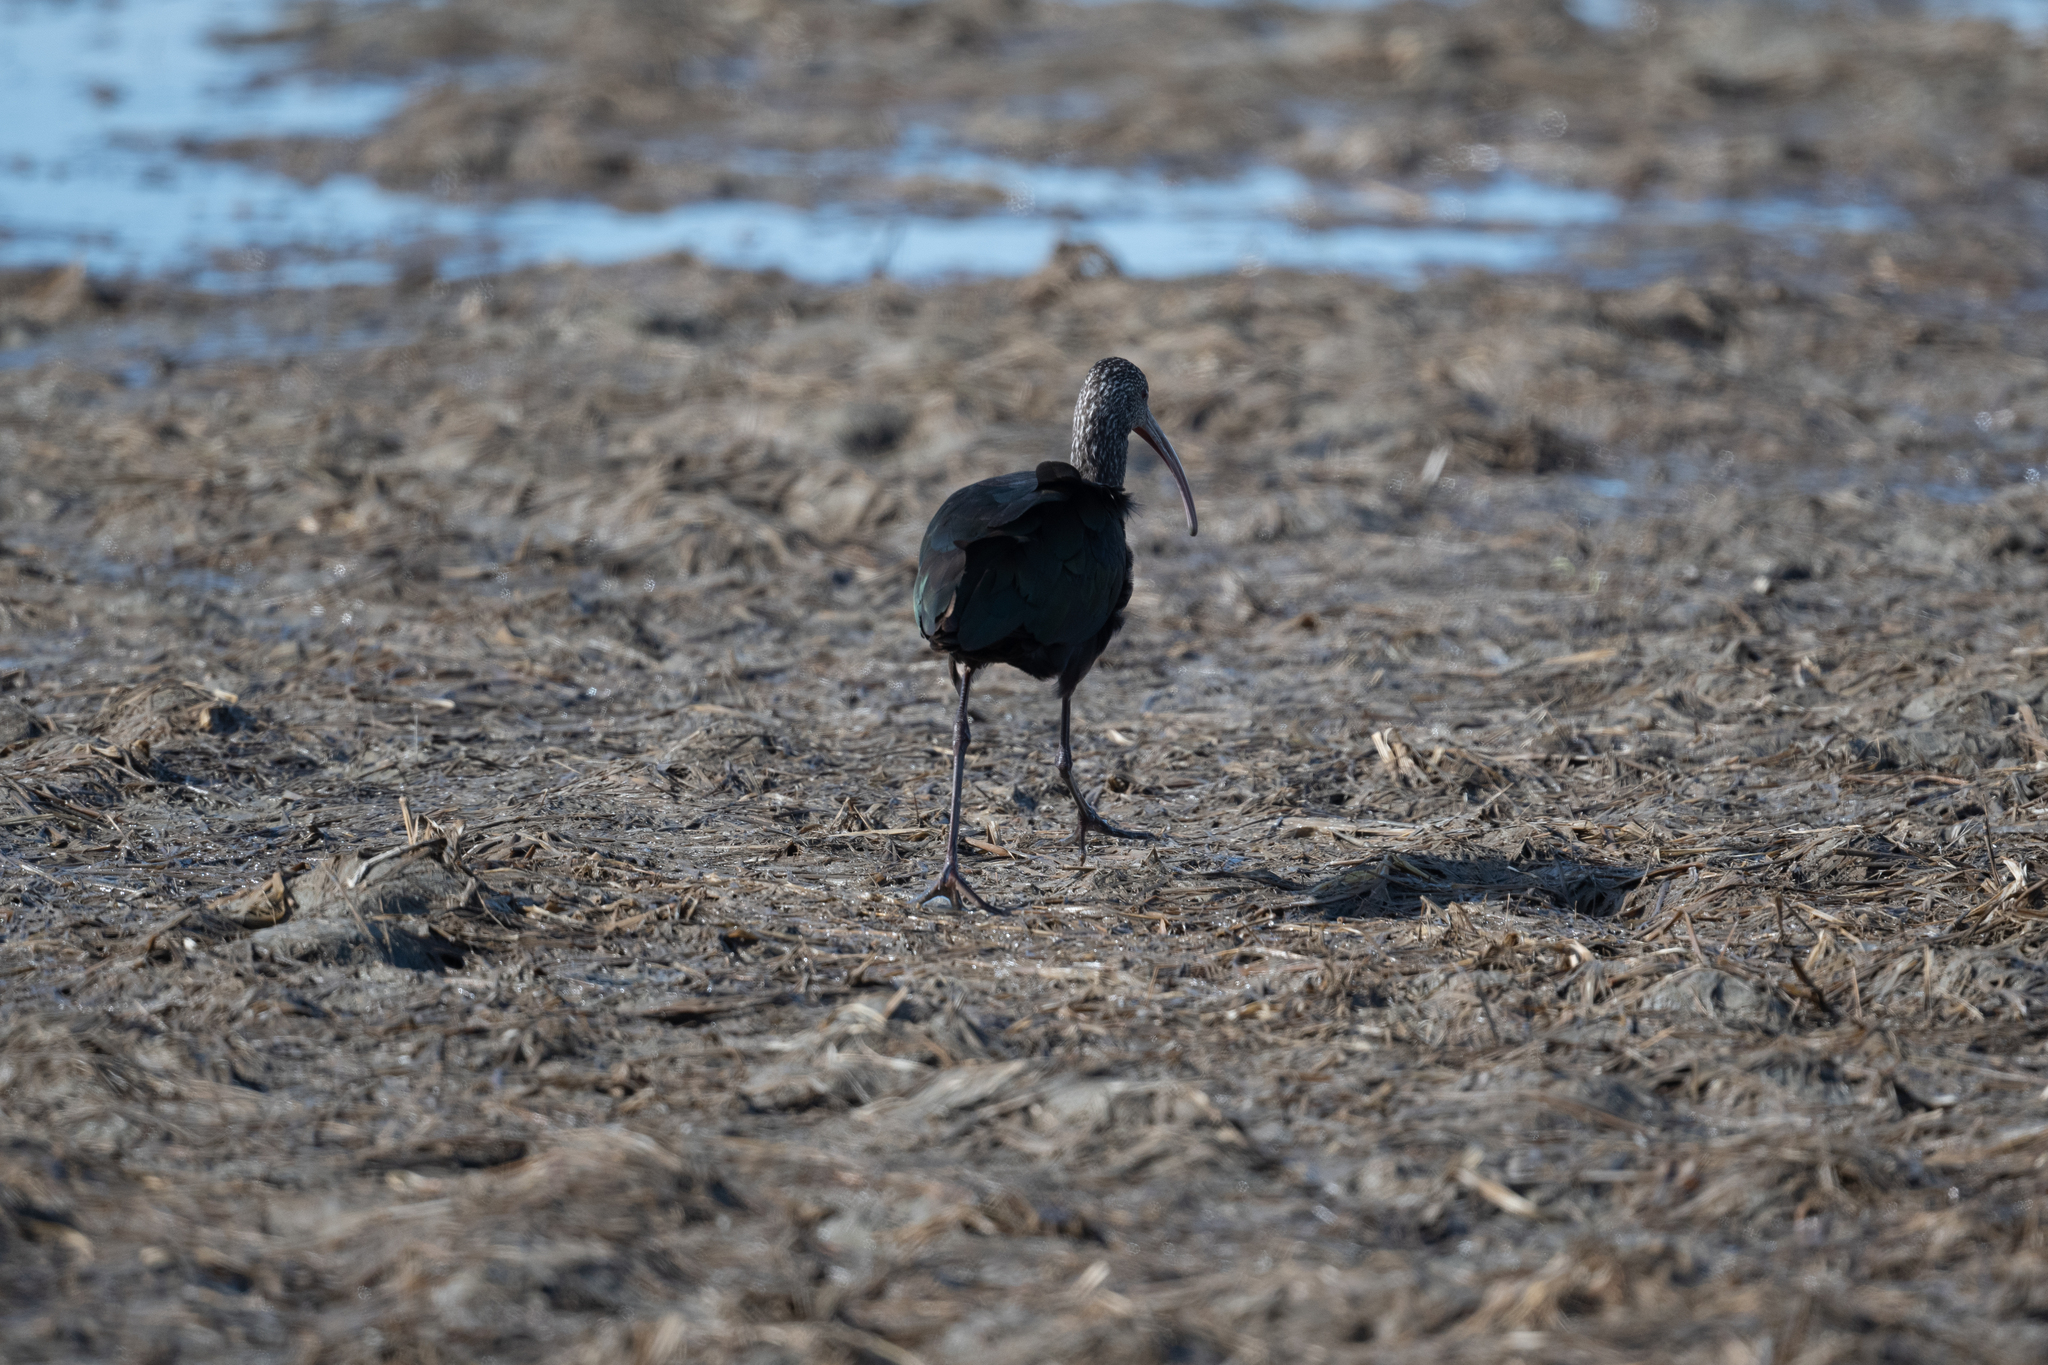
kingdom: Animalia
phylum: Chordata
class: Aves
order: Pelecaniformes
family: Threskiornithidae
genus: Plegadis
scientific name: Plegadis chihi
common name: White-faced ibis
